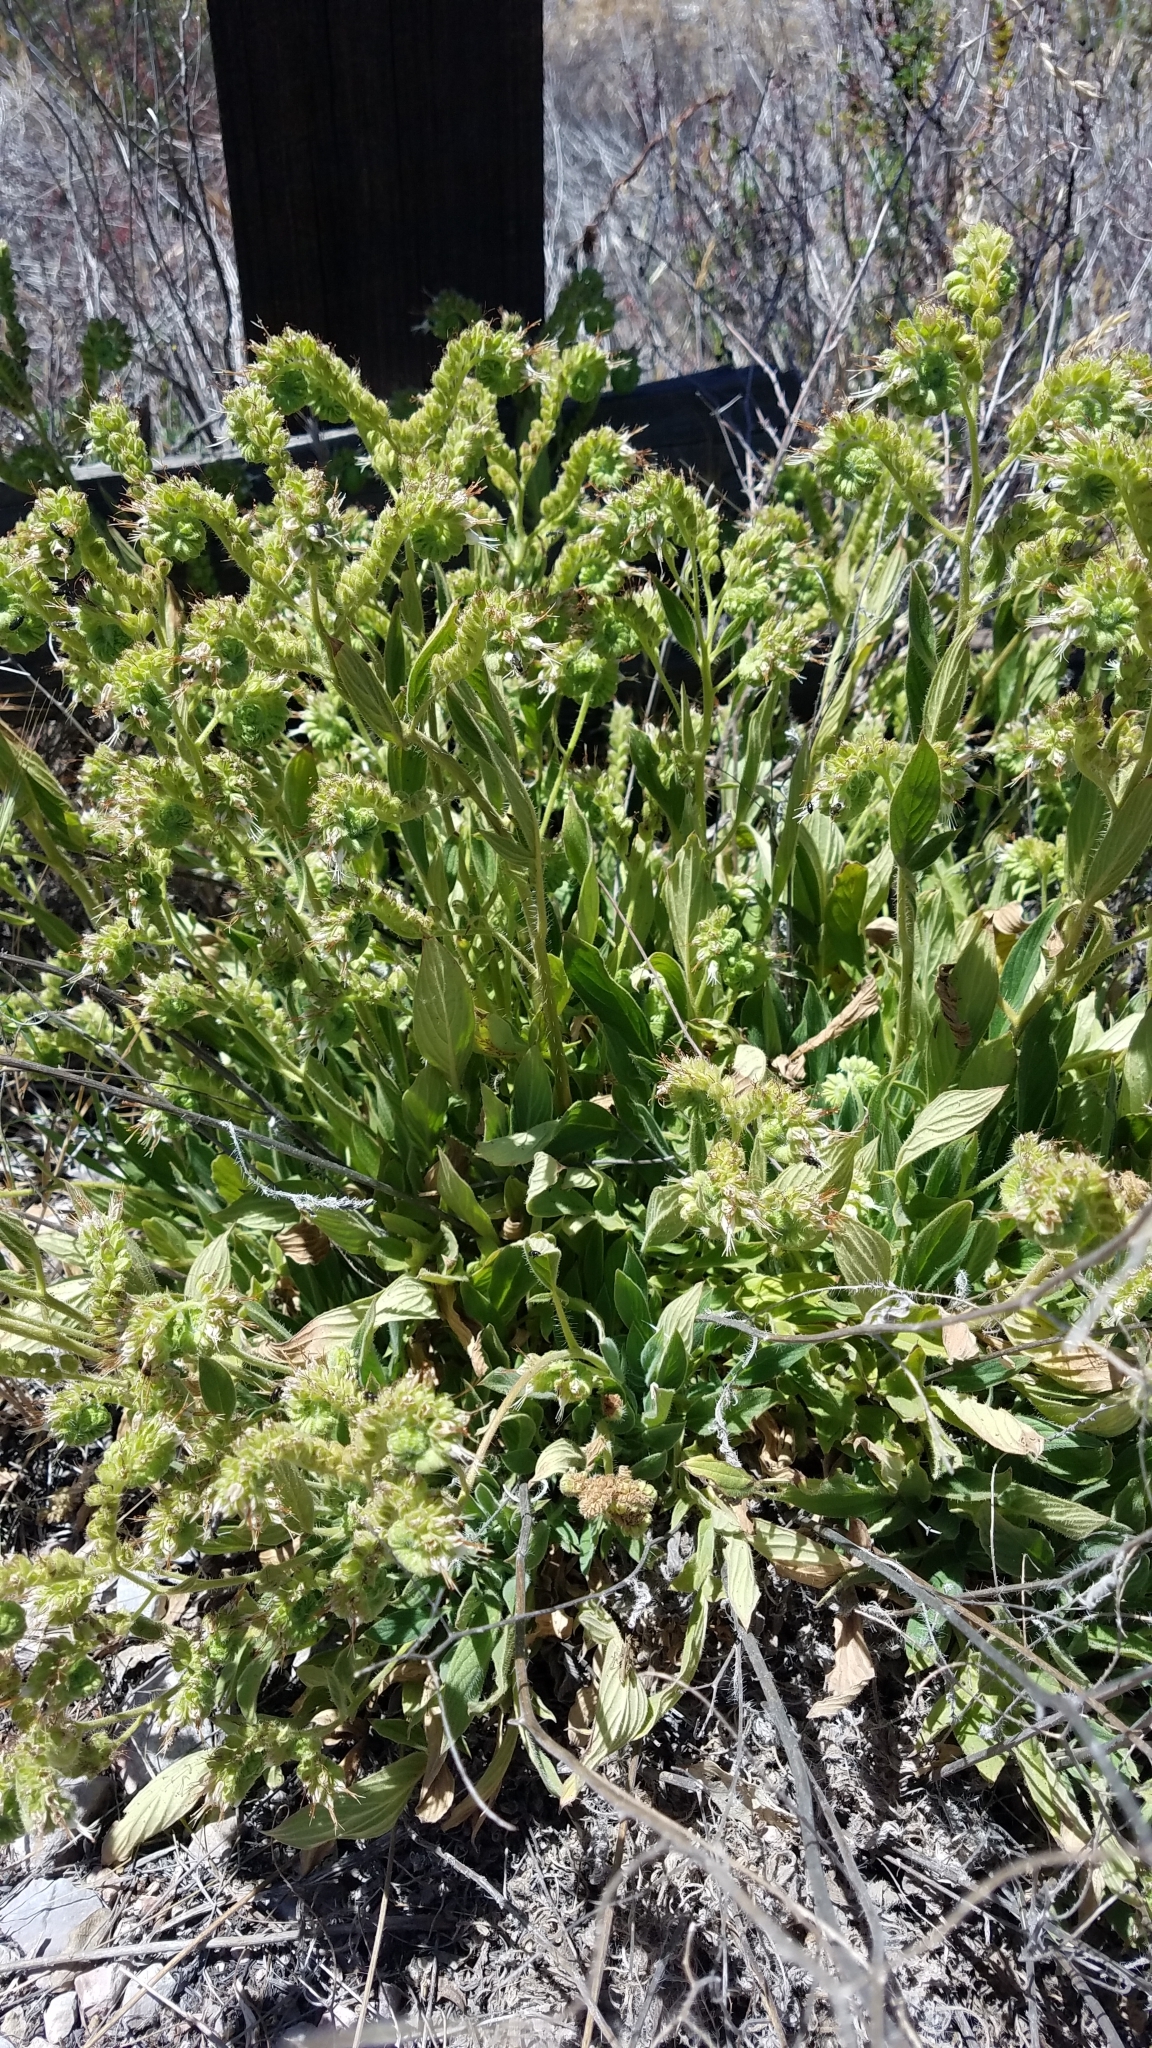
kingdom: Plantae
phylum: Tracheophyta
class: Magnoliopsida
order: Boraginales
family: Hydrophyllaceae
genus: Phacelia
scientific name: Phacelia imbricata
